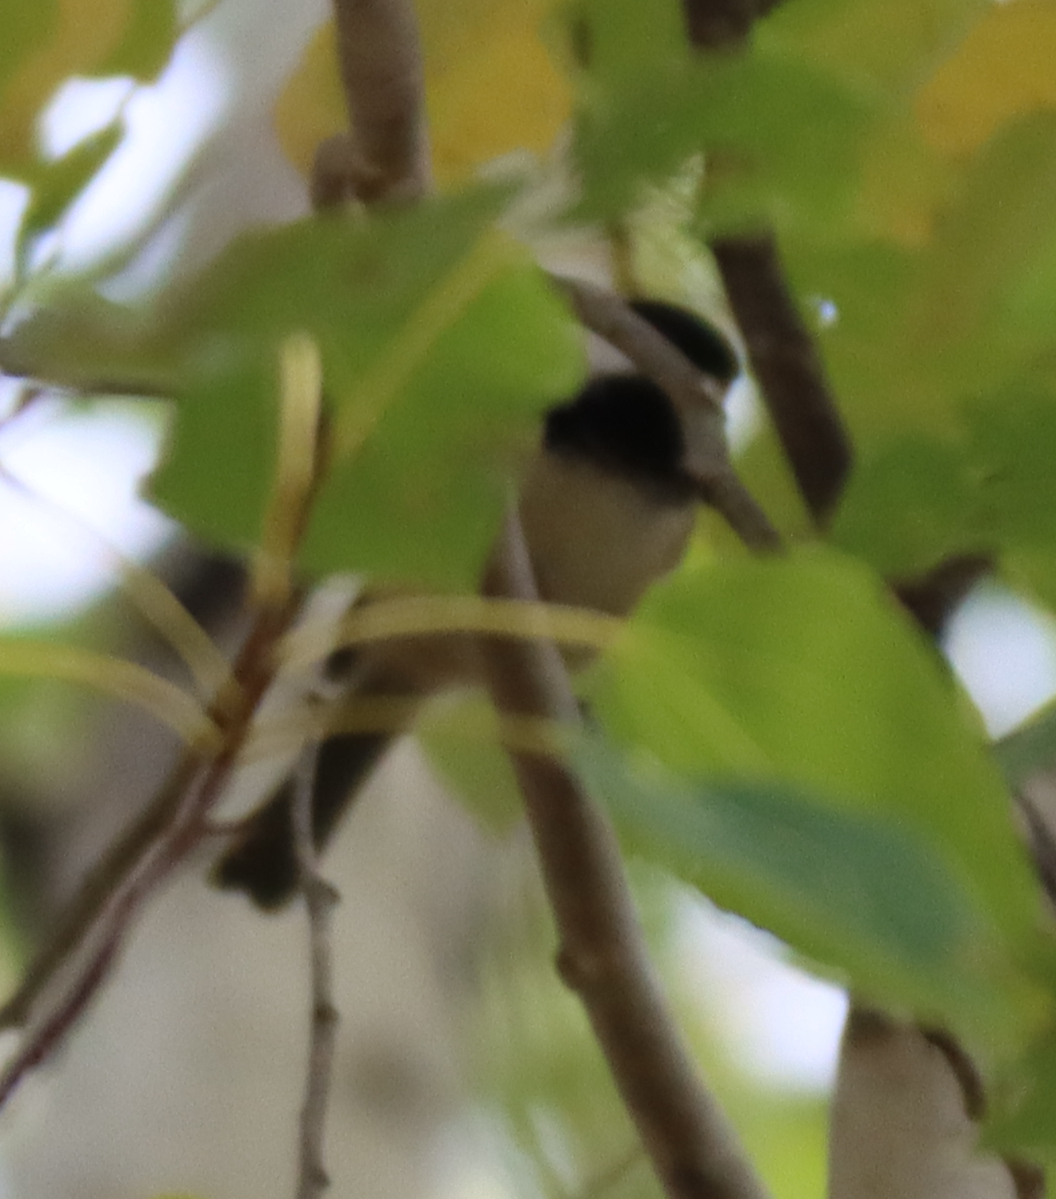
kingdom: Animalia
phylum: Chordata
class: Aves
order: Passeriformes
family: Paridae
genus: Poecile
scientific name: Poecile atricapillus
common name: Black-capped chickadee
